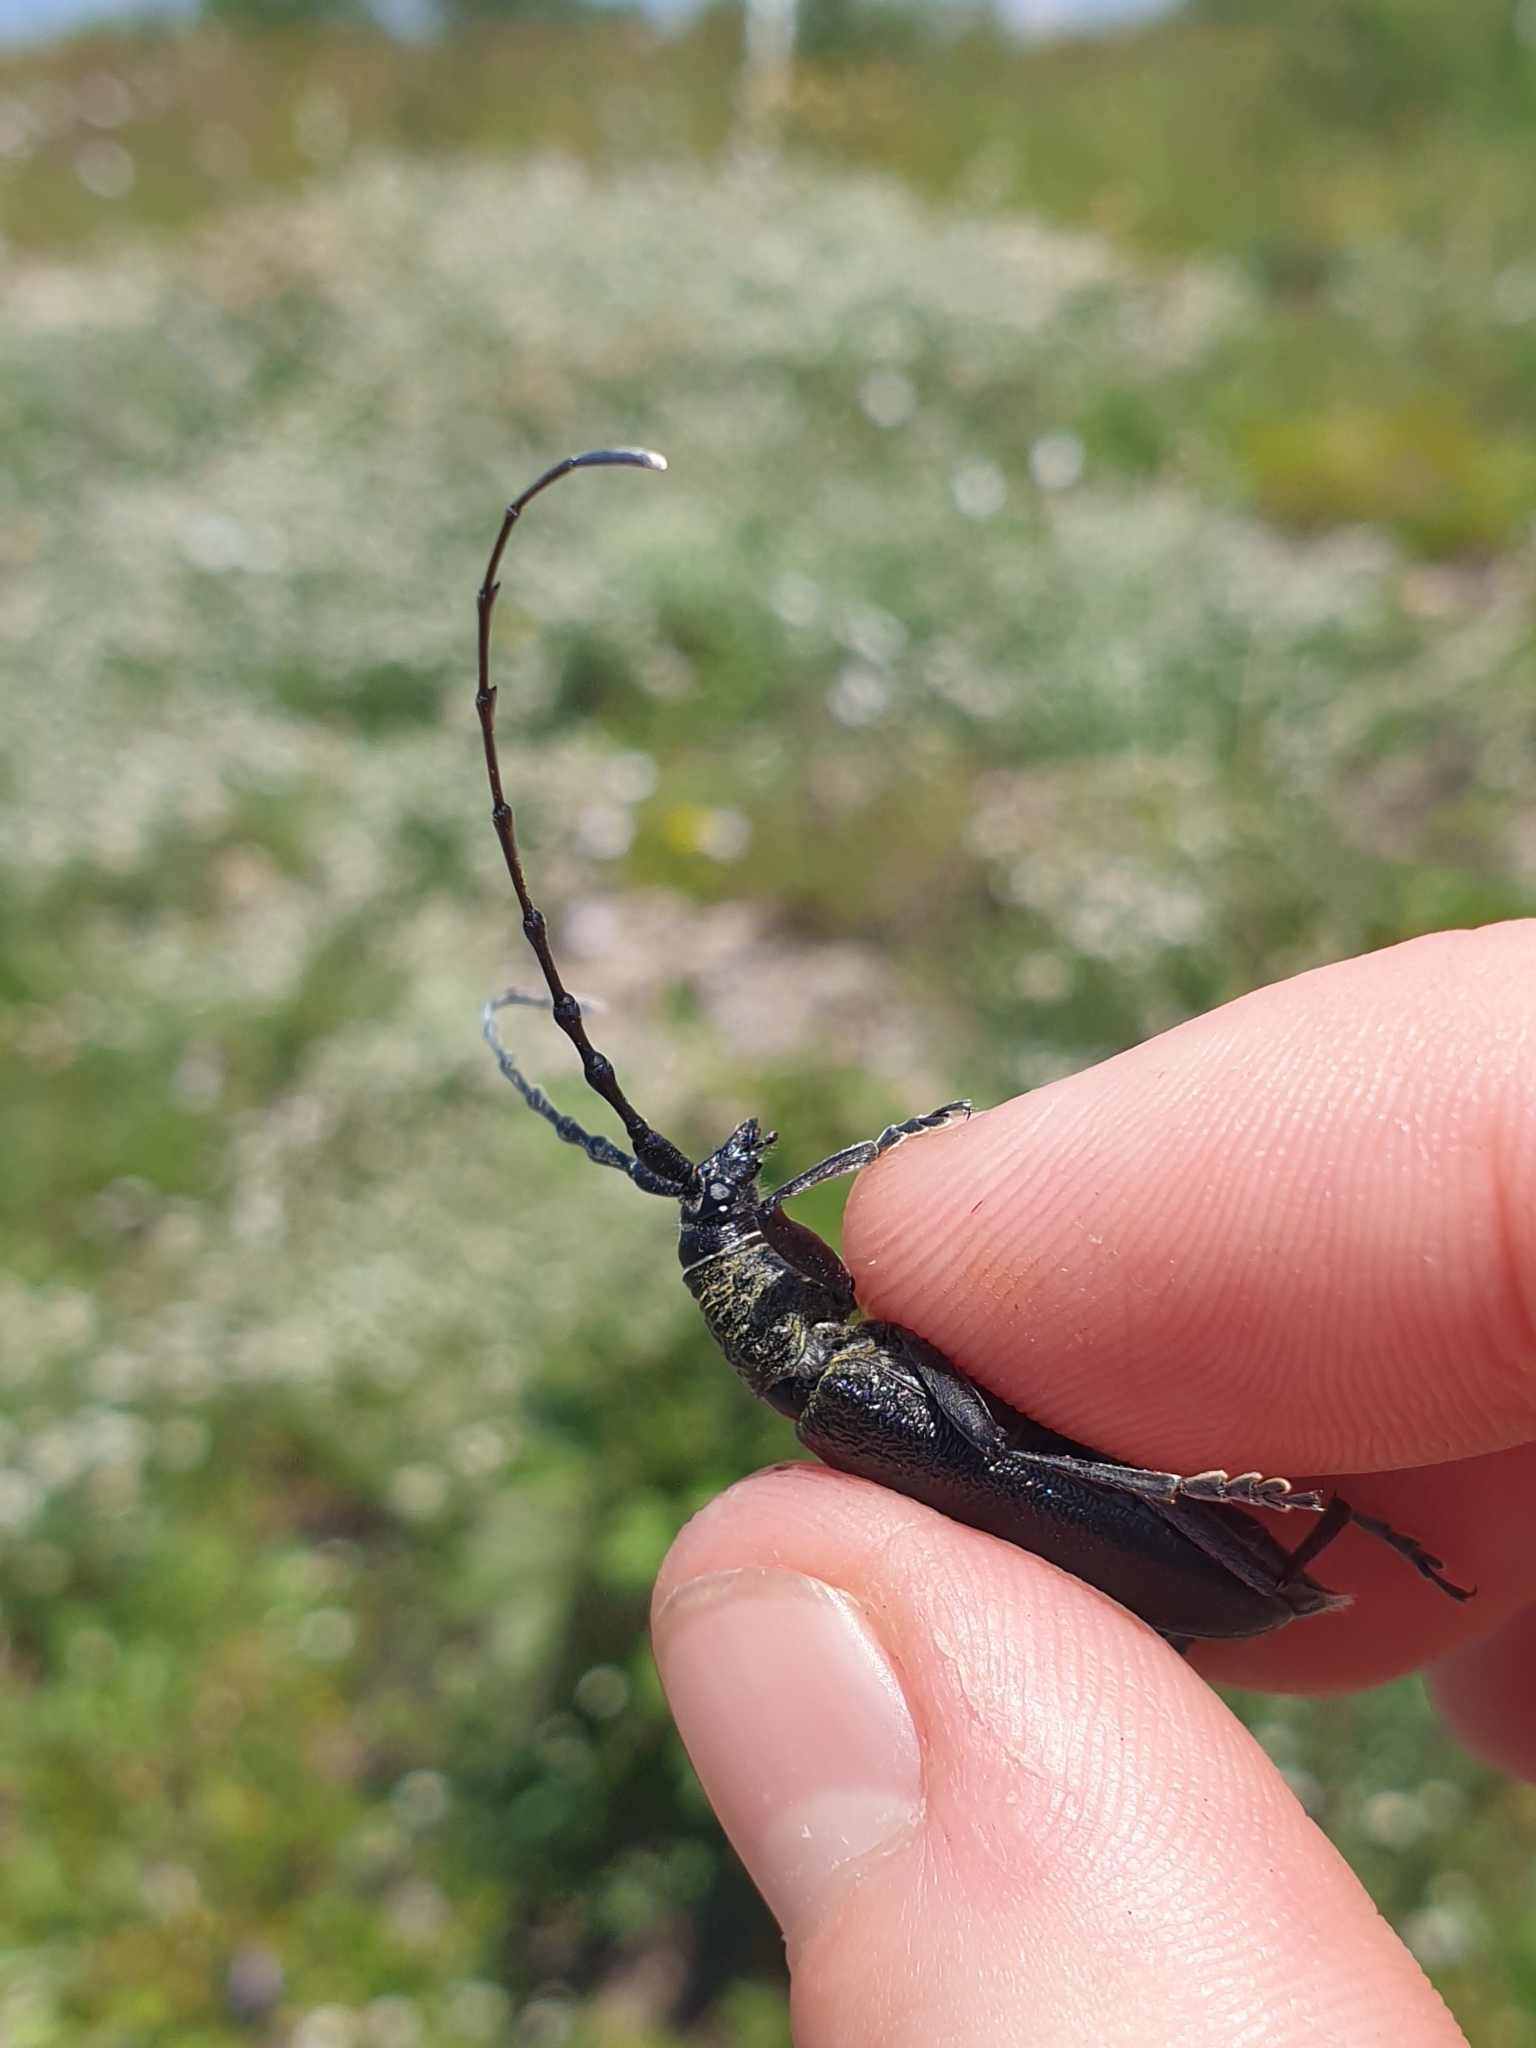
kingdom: Animalia
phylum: Arthropoda
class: Insecta
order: Coleoptera
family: Cerambycidae
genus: Cerambyx
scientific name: Cerambyx scopolii
